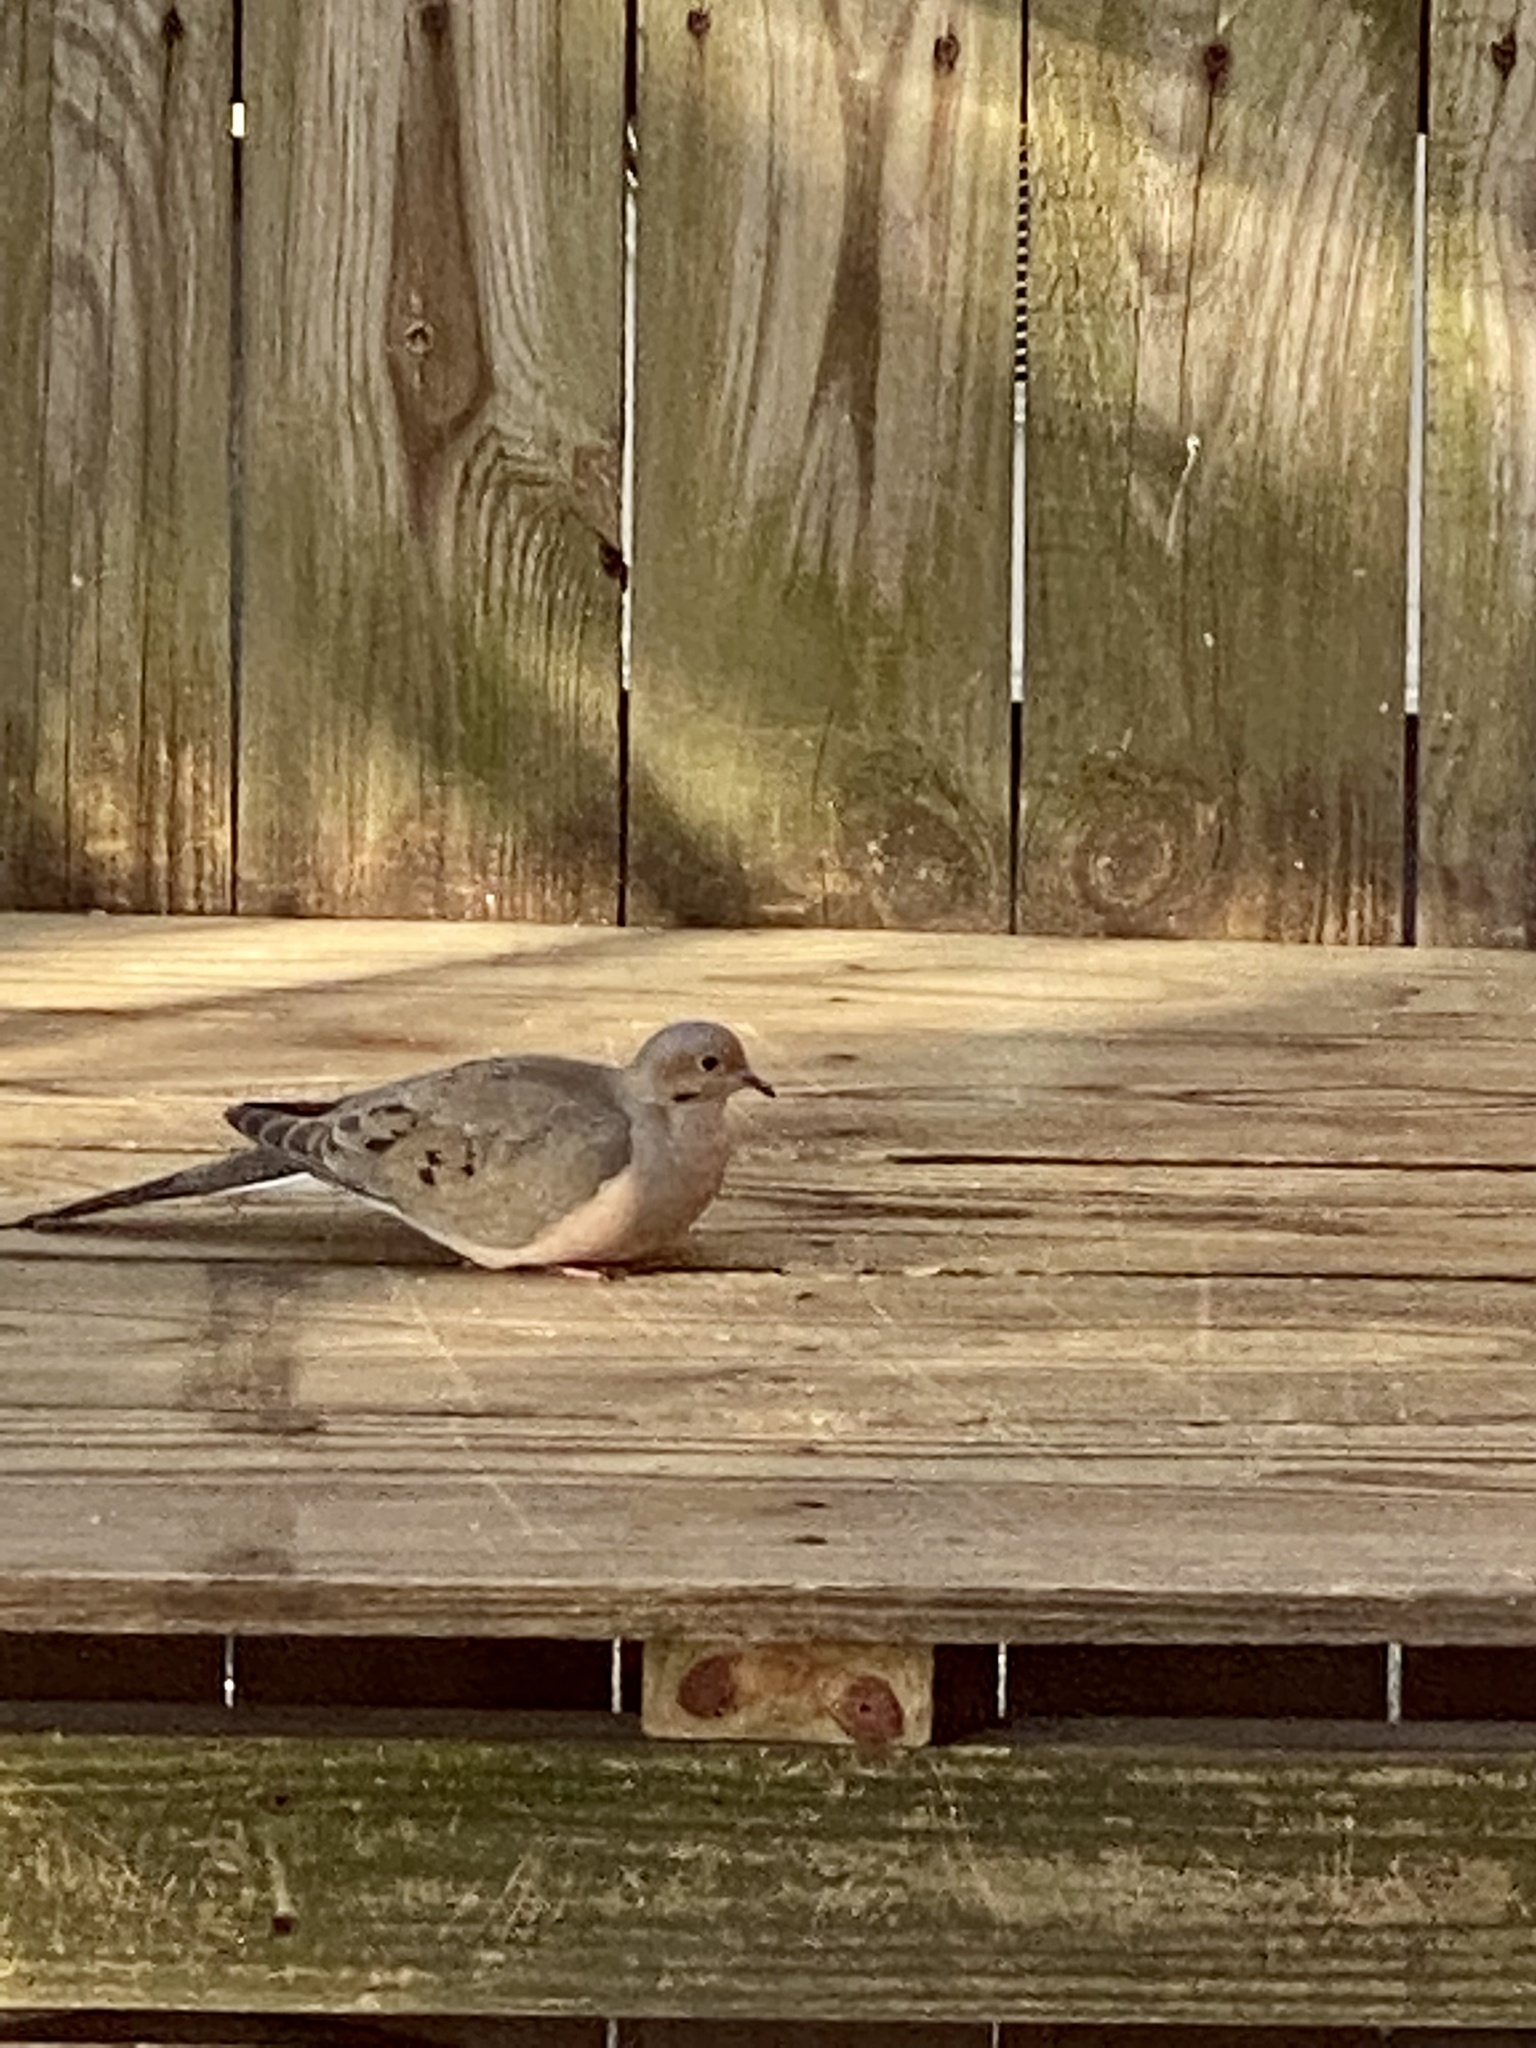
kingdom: Animalia
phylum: Chordata
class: Aves
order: Columbiformes
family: Columbidae
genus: Zenaida
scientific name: Zenaida macroura
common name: Mourning dove
